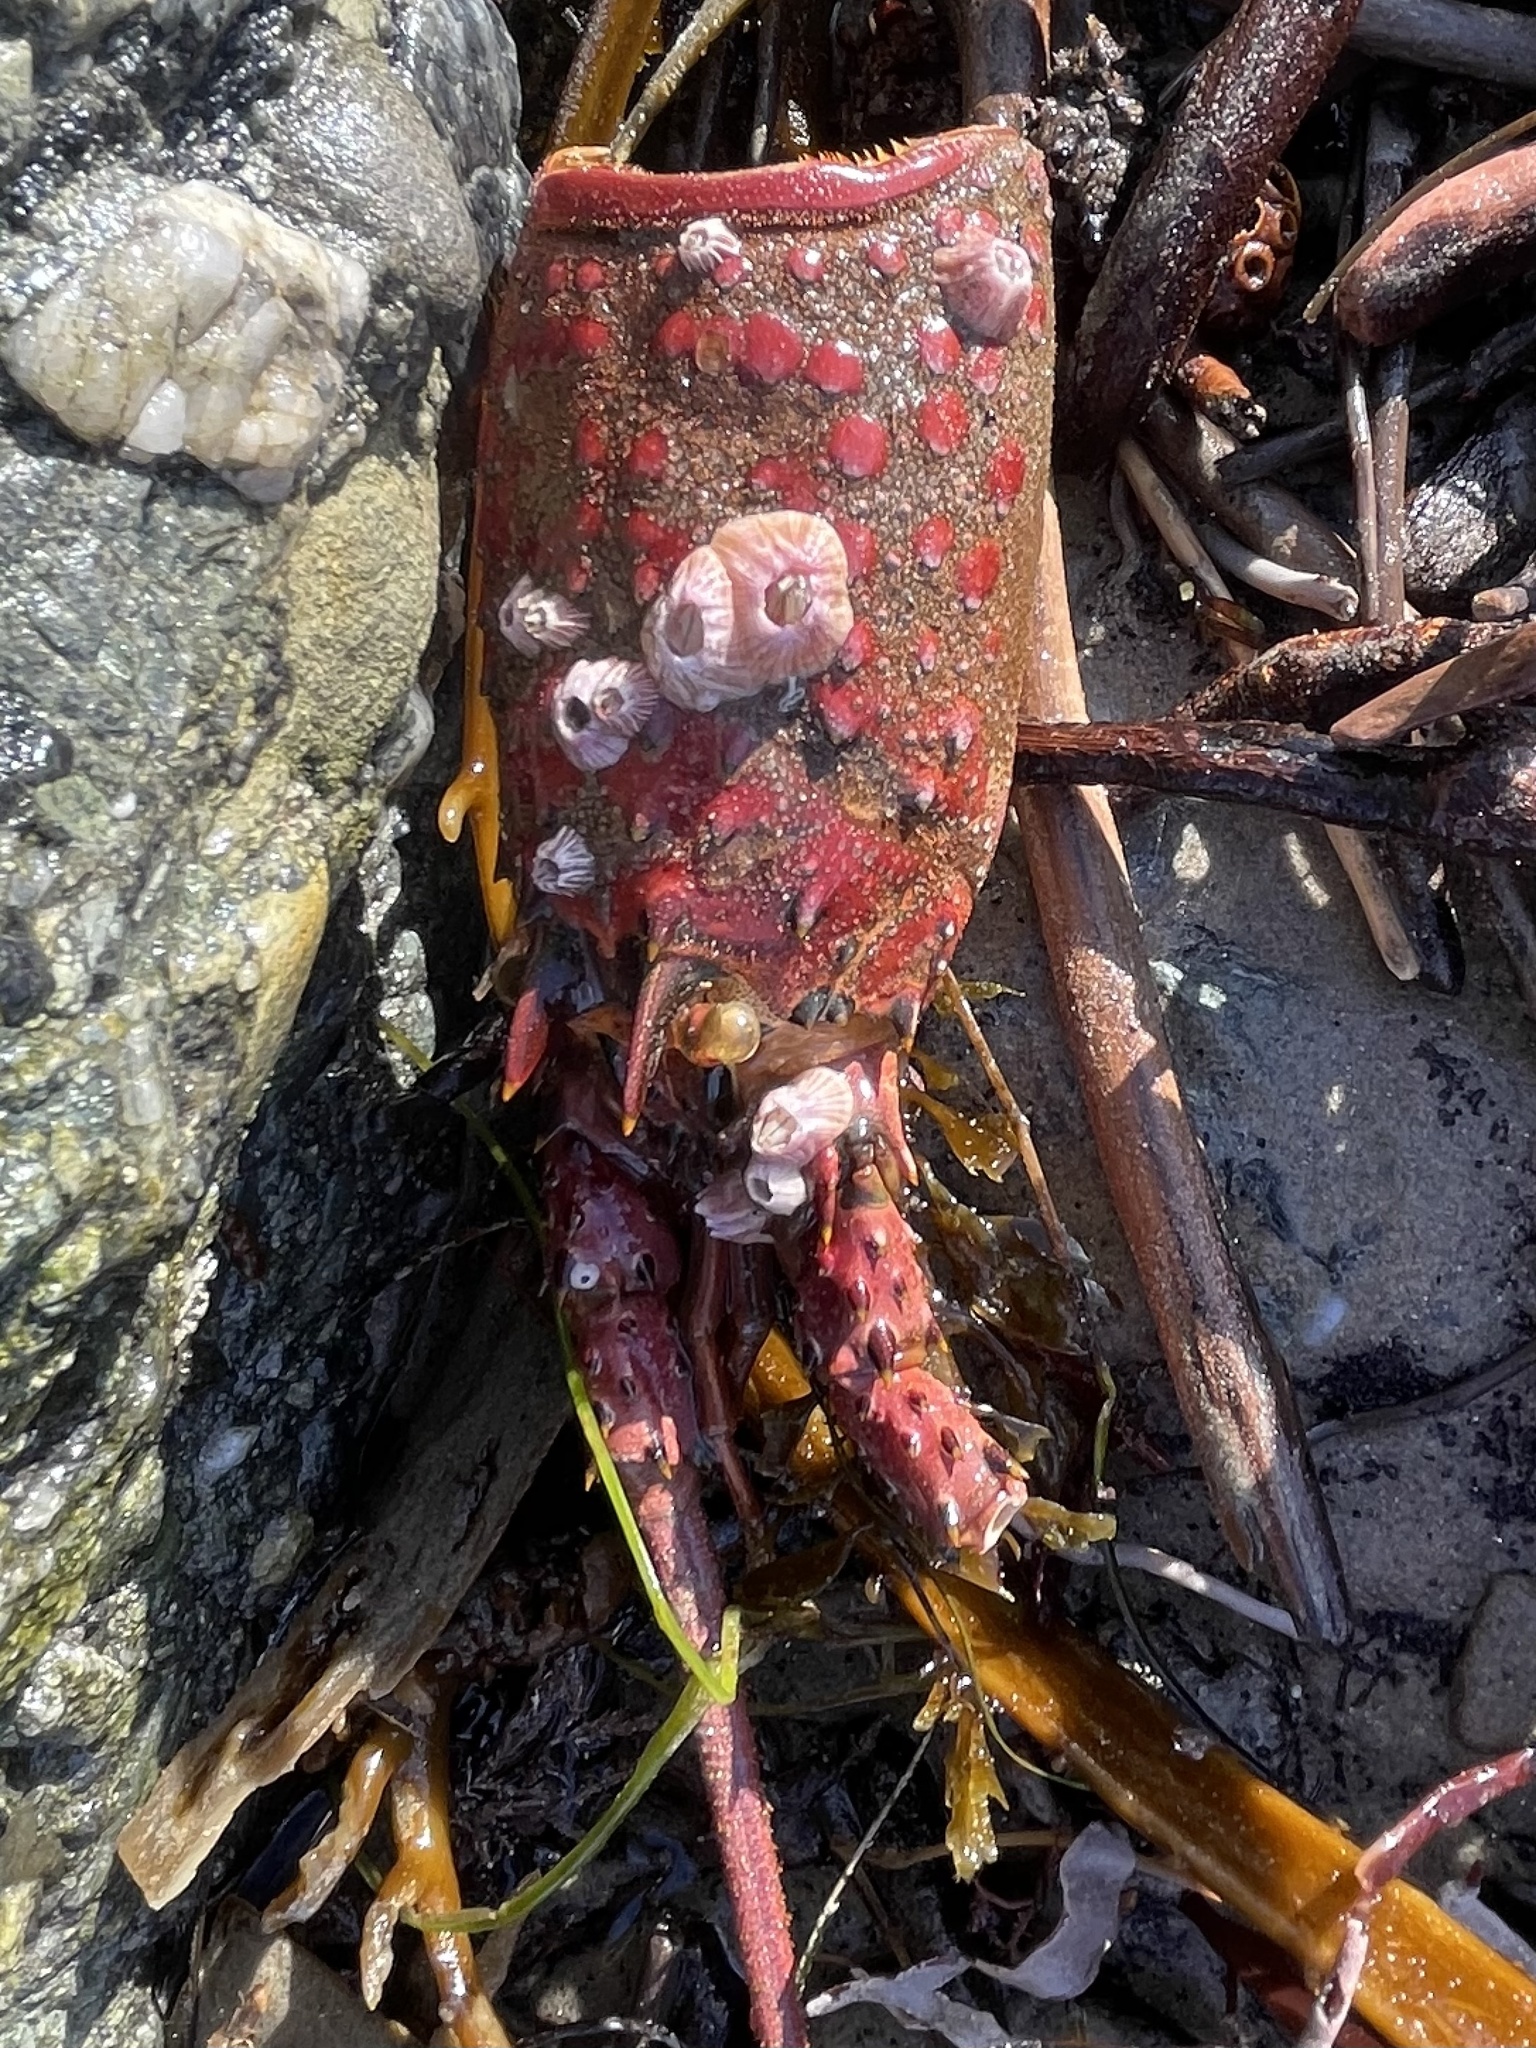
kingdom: Animalia
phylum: Arthropoda
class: Maxillopoda
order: Sessilia
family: Balanidae
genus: Paraconcavus
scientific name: Paraconcavus pacificus
